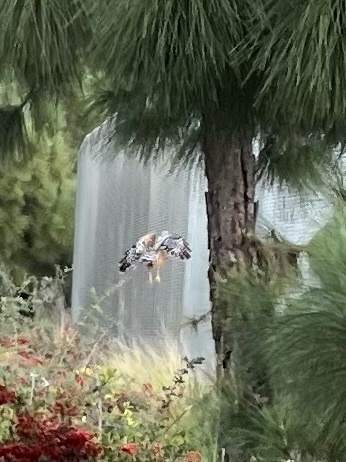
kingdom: Animalia
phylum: Chordata
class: Aves
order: Accipitriformes
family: Accipitridae
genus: Buteo
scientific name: Buteo lineatus
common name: Red-shouldered hawk
